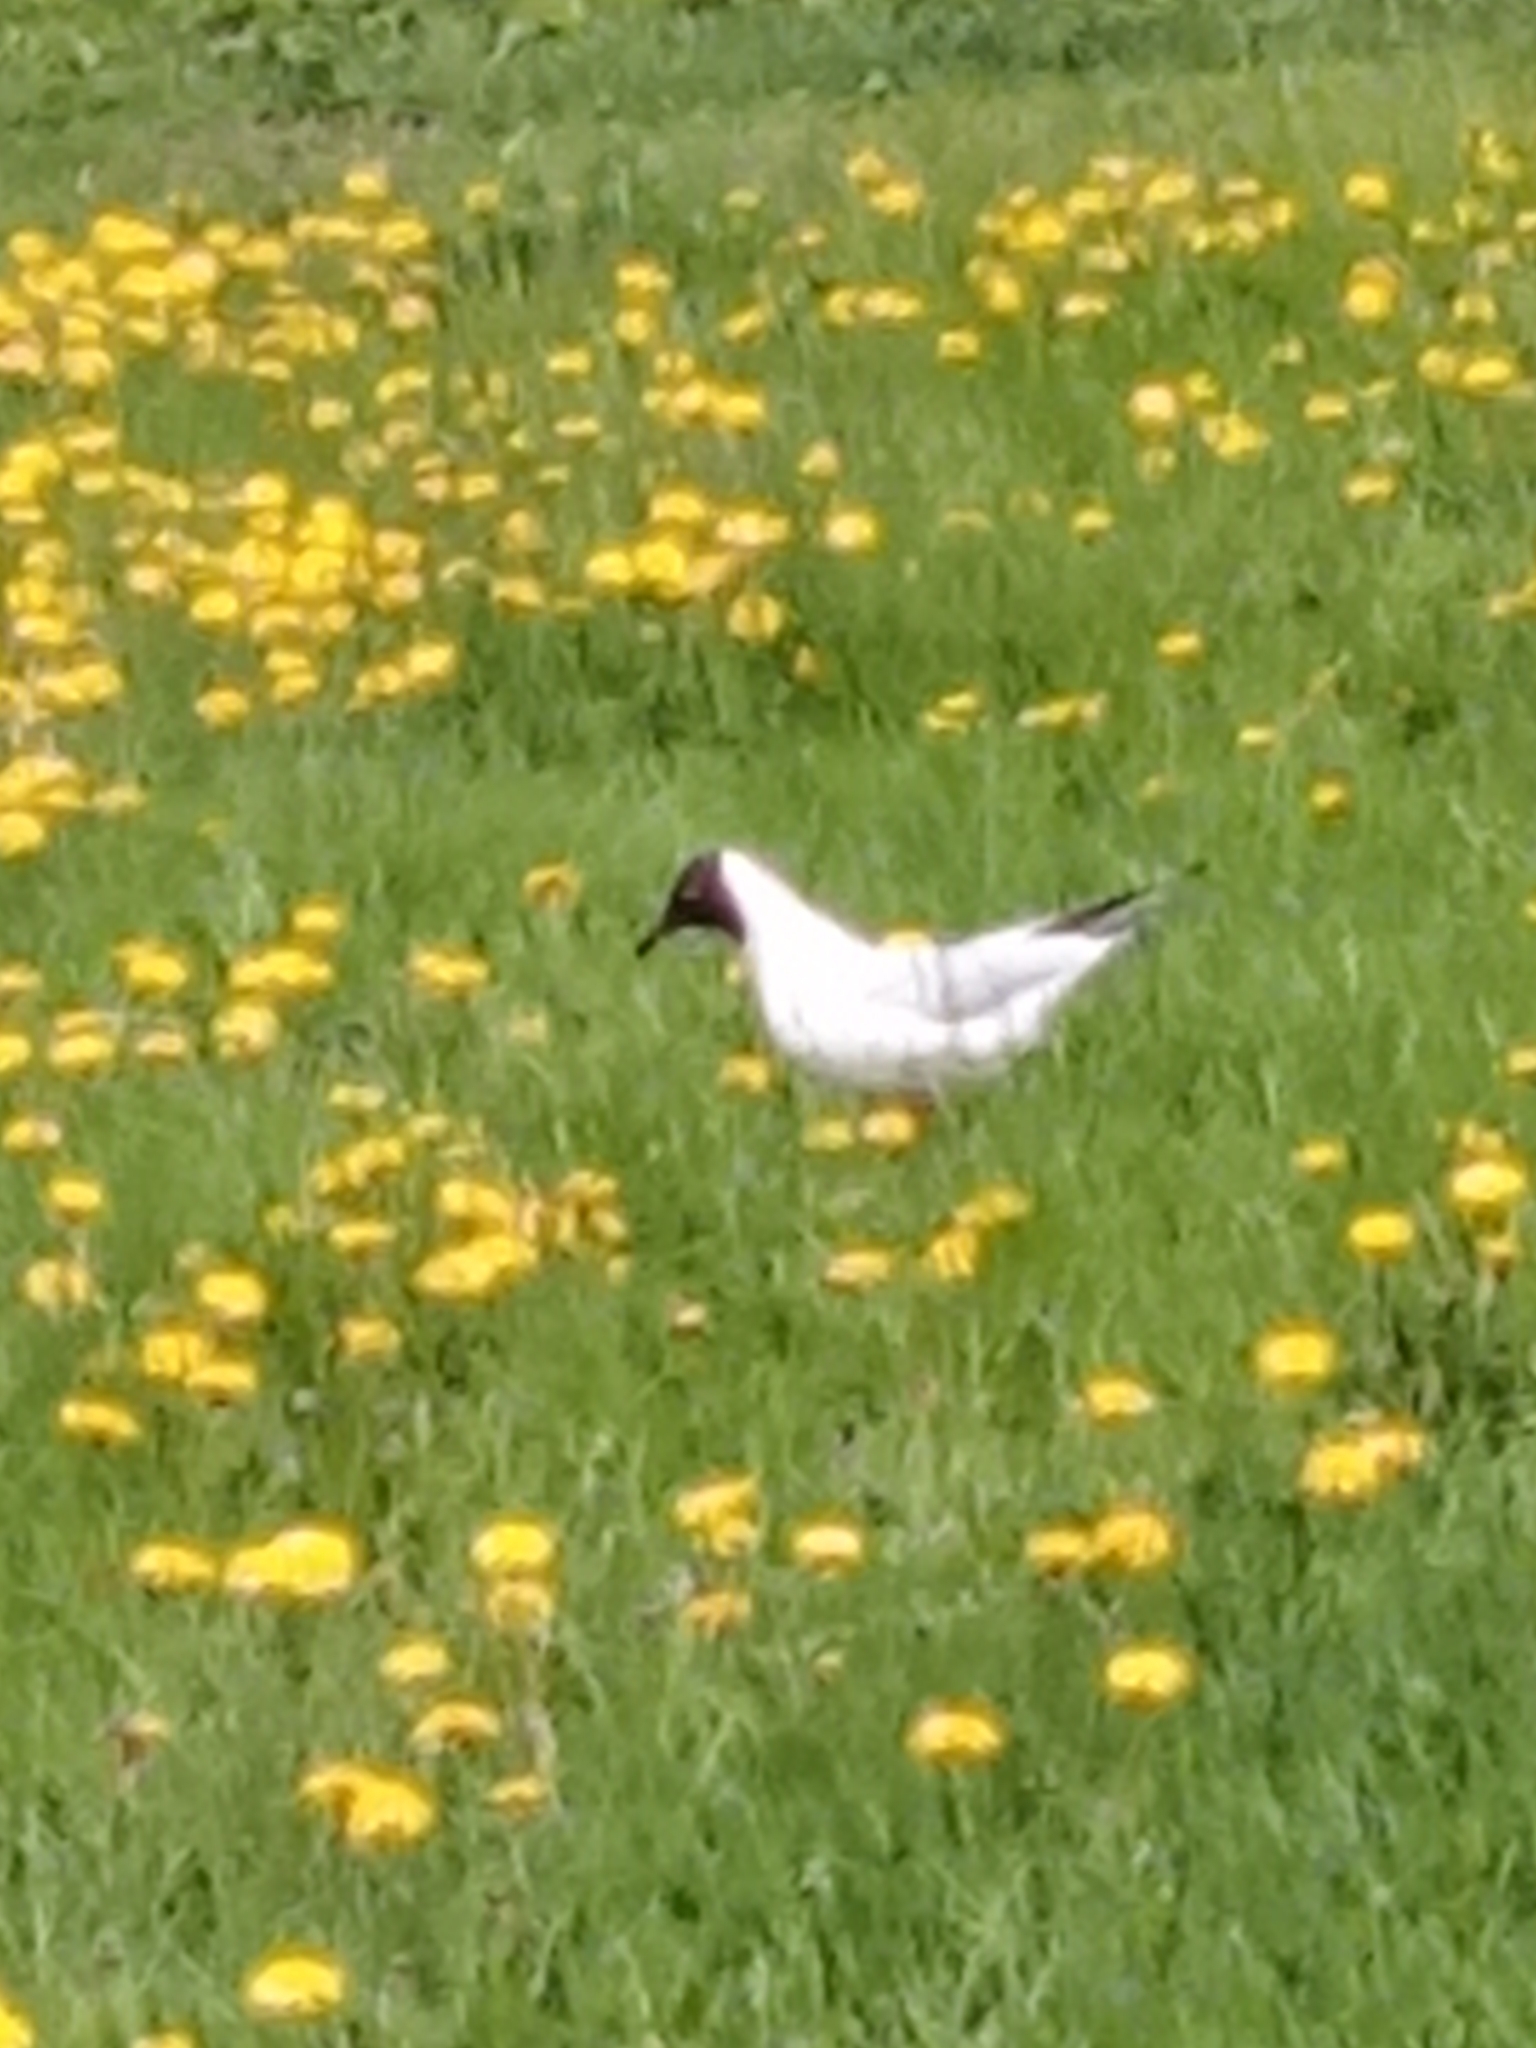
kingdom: Animalia
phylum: Chordata
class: Aves
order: Charadriiformes
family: Laridae
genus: Chroicocephalus
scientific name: Chroicocephalus ridibundus
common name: Black-headed gull
